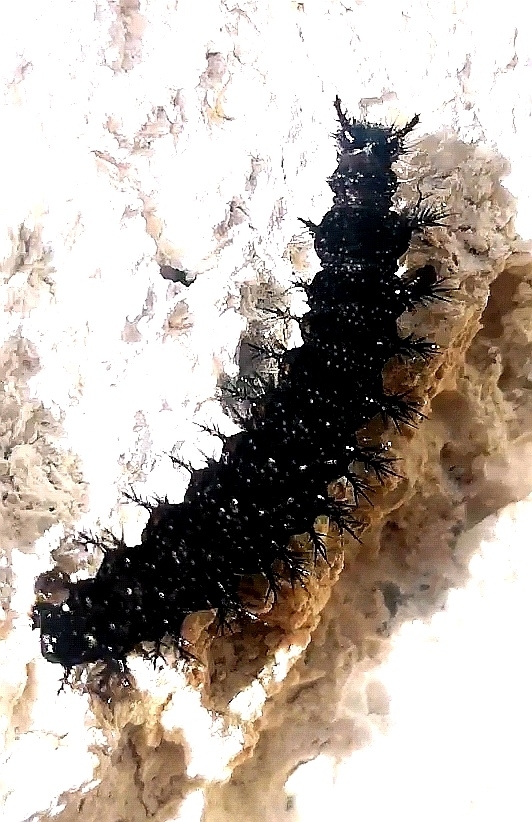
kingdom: Animalia
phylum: Arthropoda
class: Insecta
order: Lepidoptera
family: Nymphalidae
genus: Araschnia
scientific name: Araschnia levana
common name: Map butterfly
